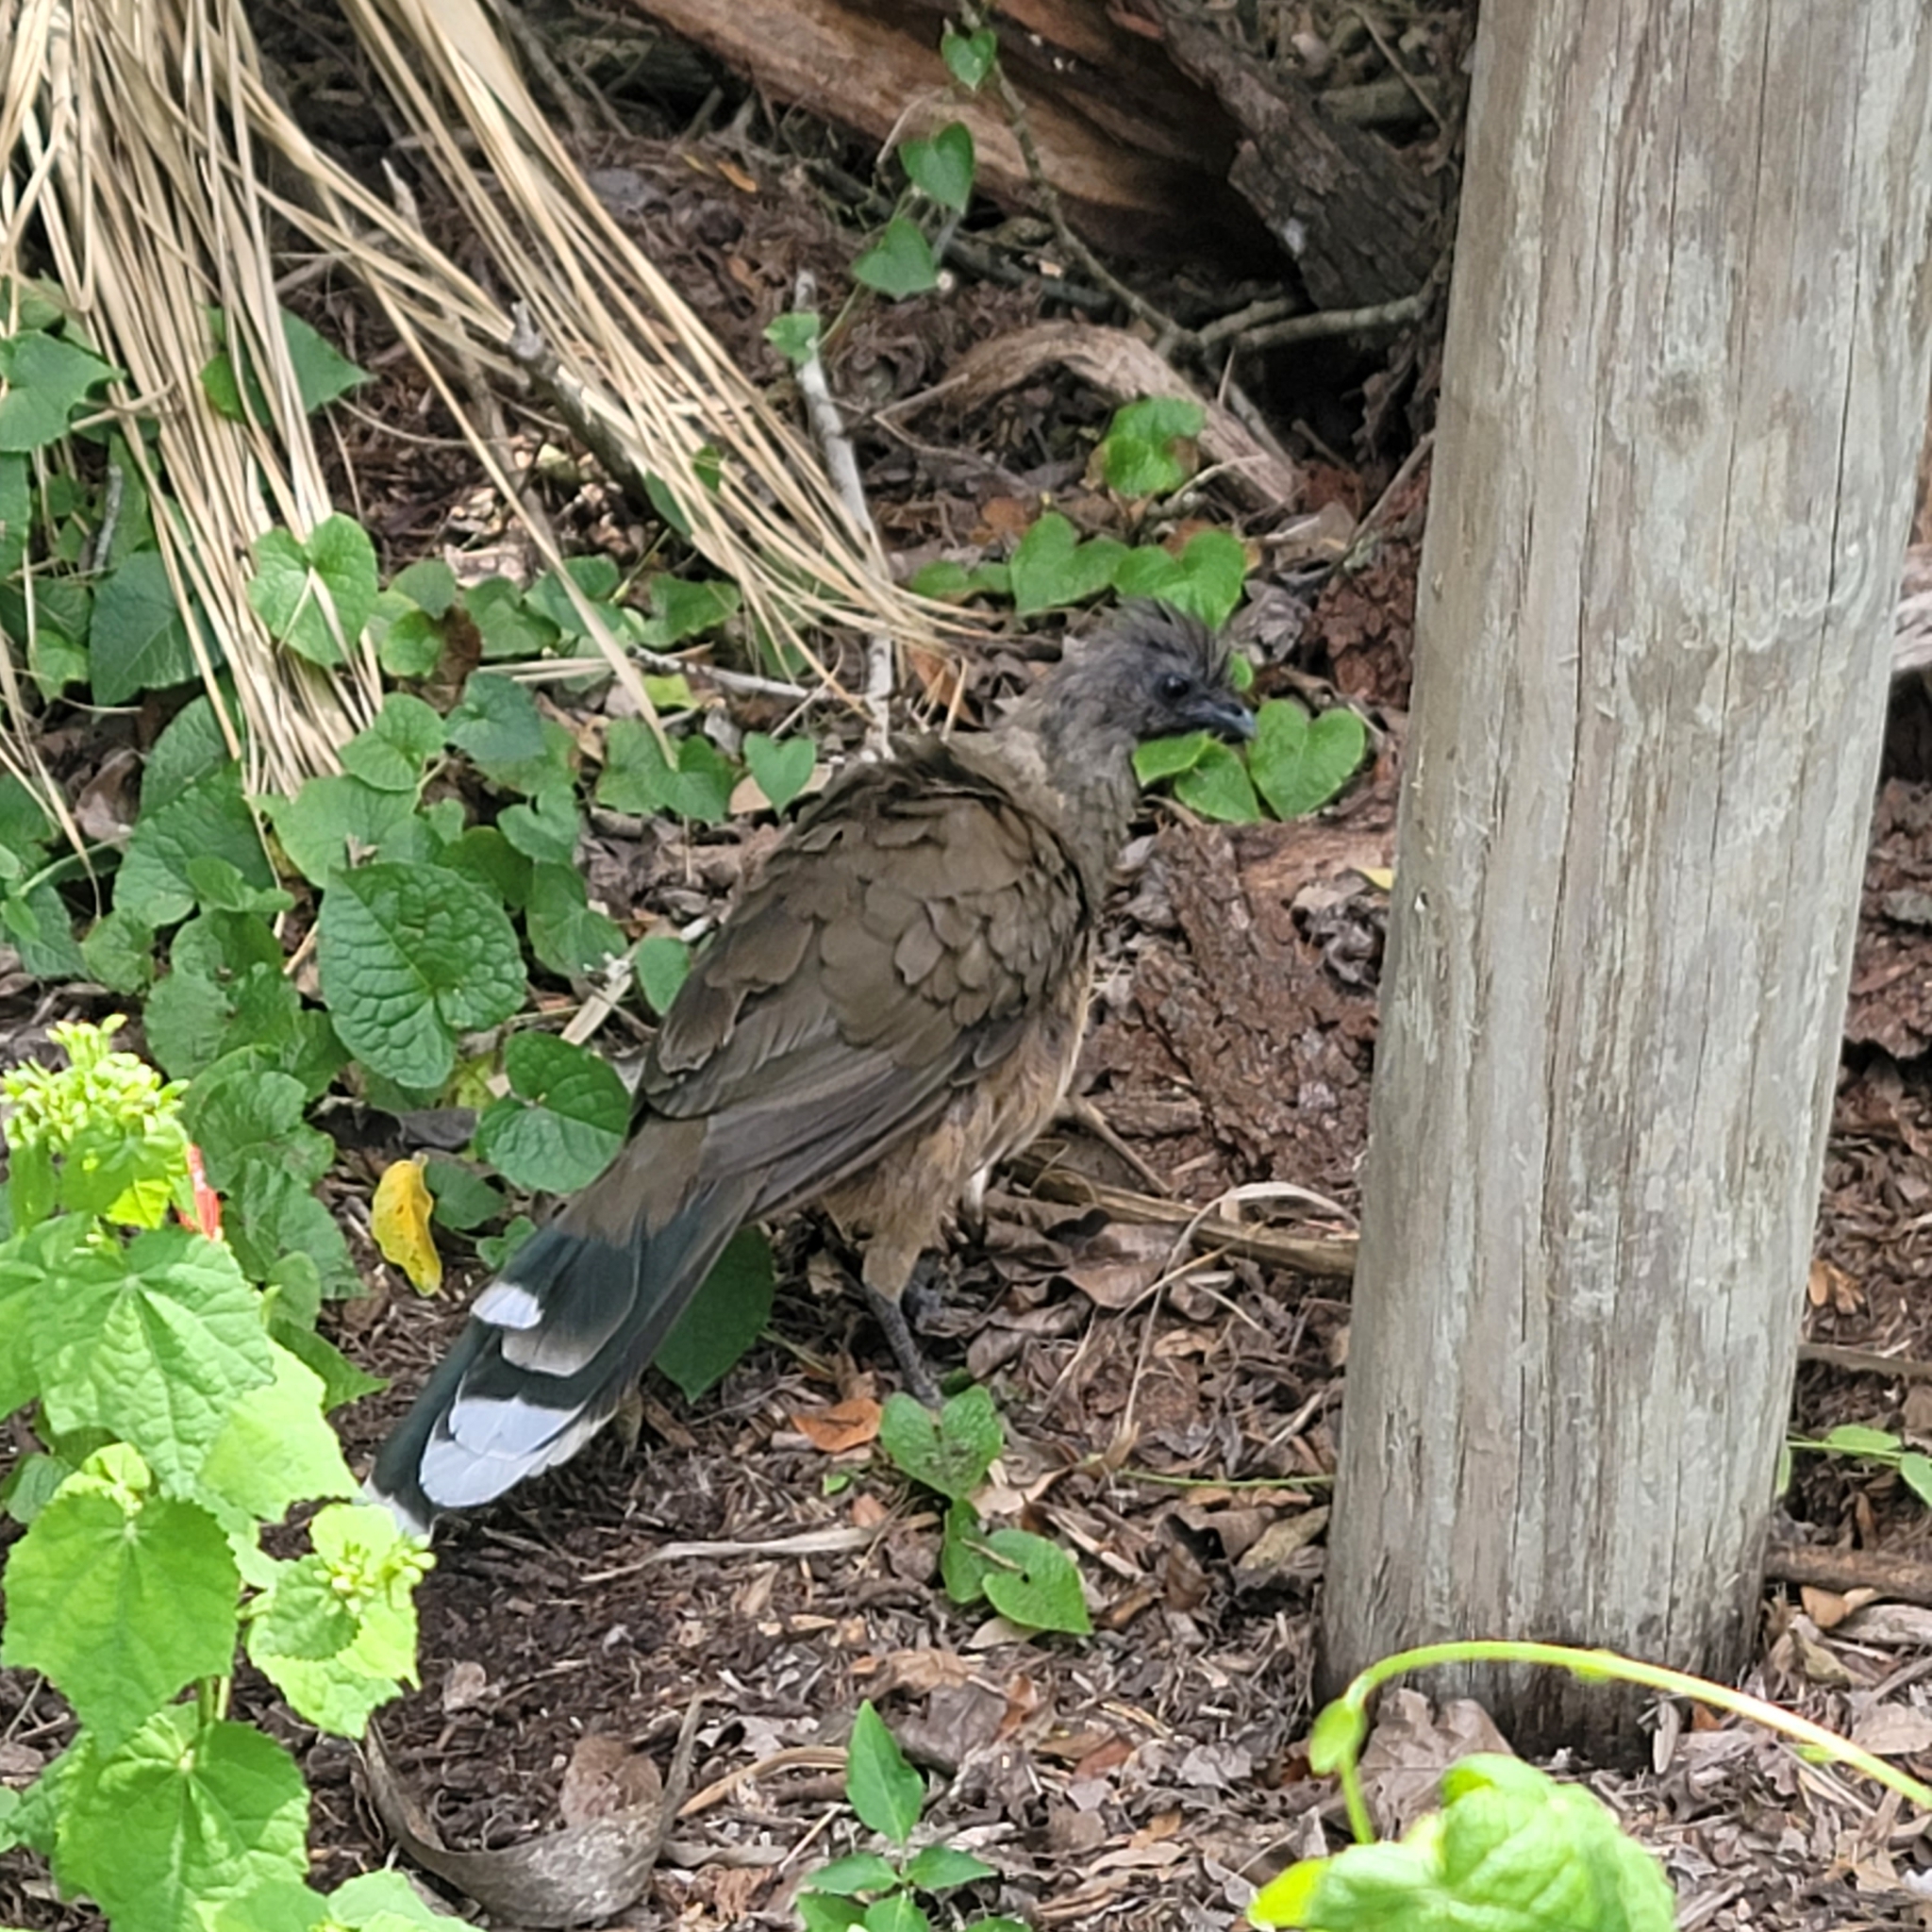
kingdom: Animalia
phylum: Chordata
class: Aves
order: Galliformes
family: Cracidae
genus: Ortalis
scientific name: Ortalis vetula
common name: Plain chachalaca
